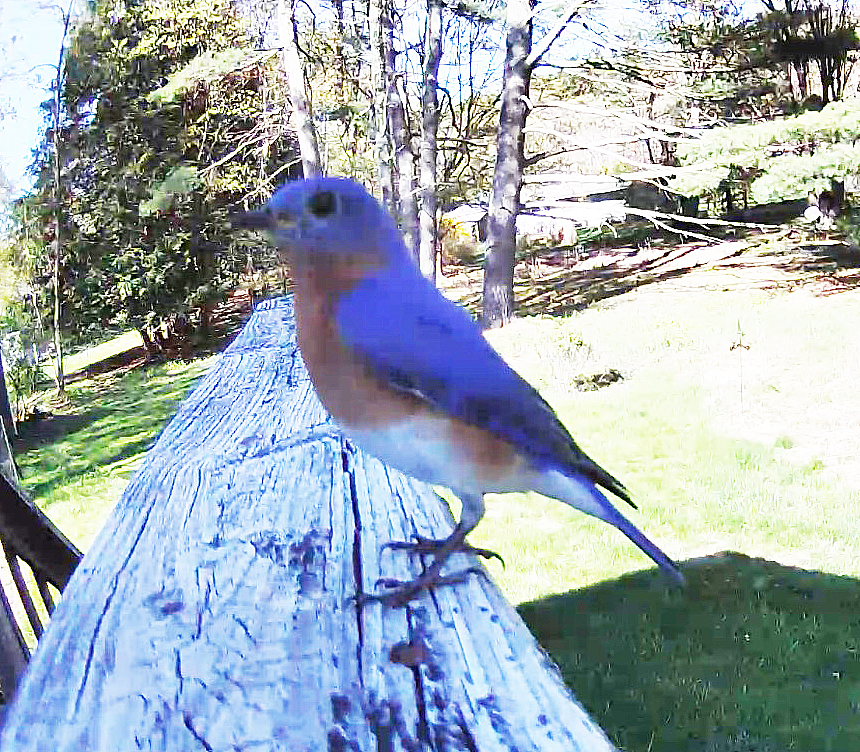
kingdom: Animalia
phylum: Chordata
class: Aves
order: Passeriformes
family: Turdidae
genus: Sialia
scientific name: Sialia sialis
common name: Eastern bluebird
